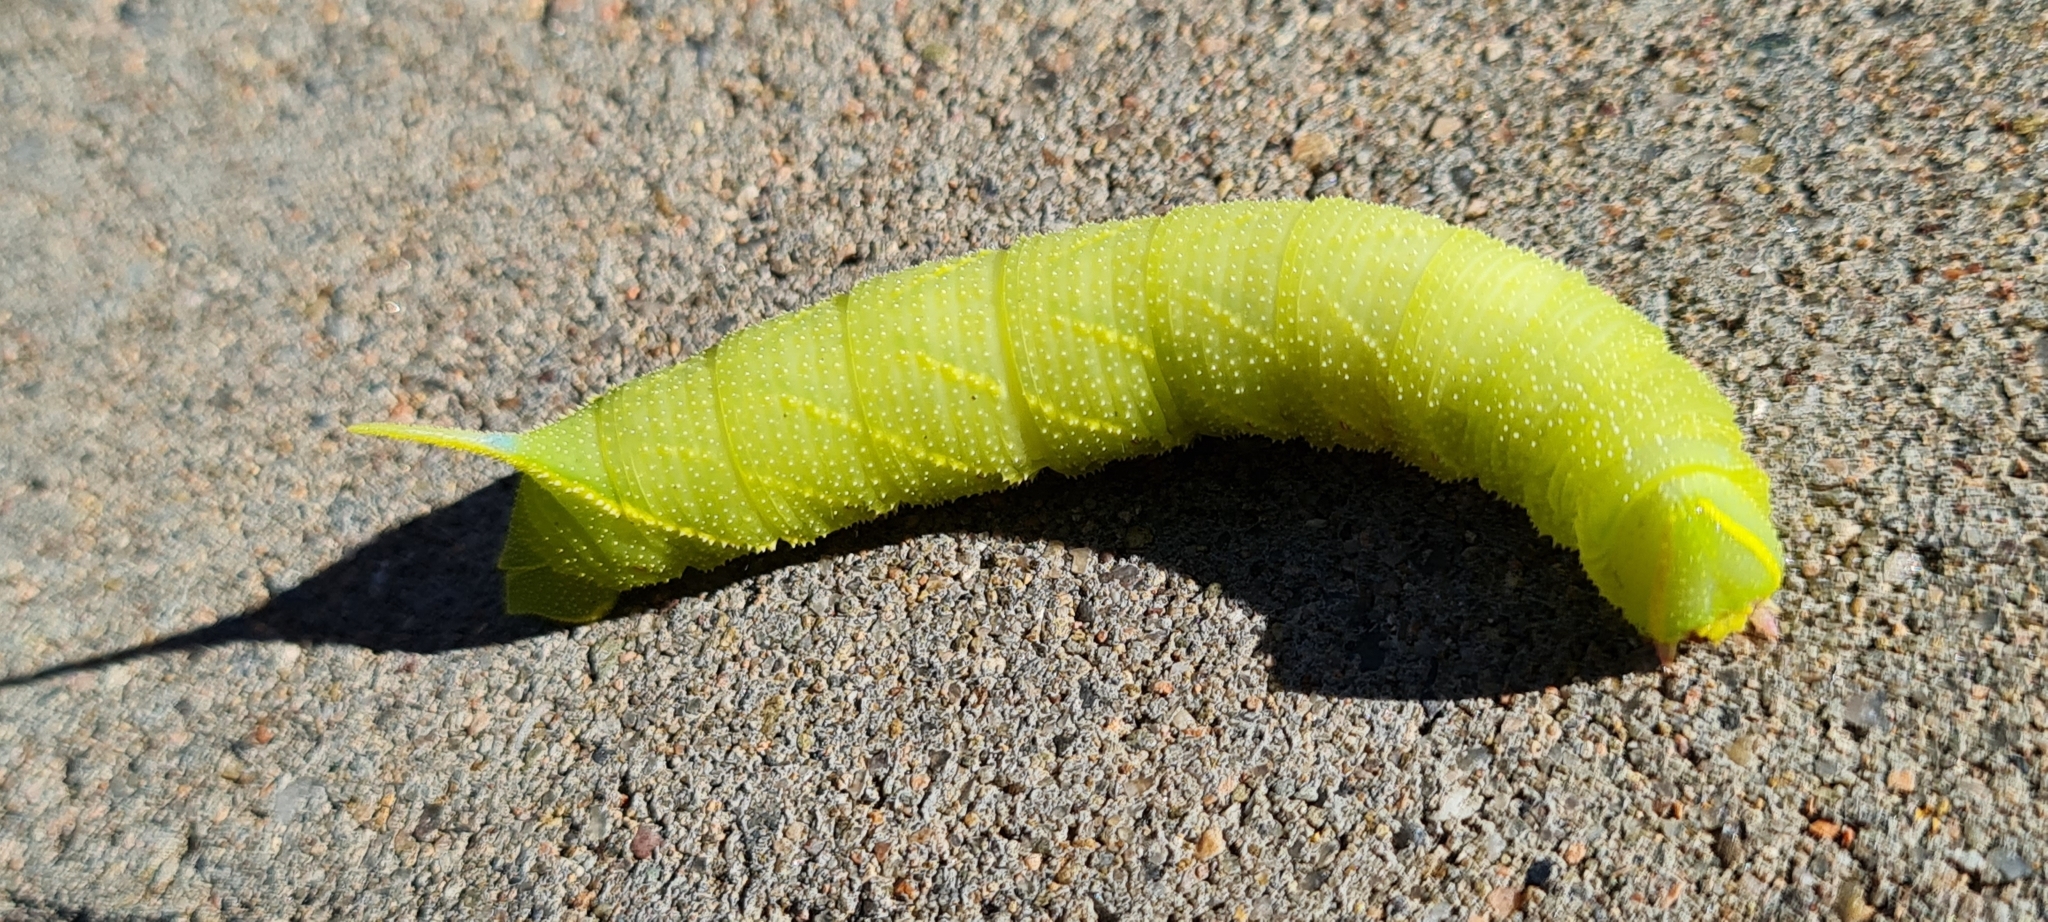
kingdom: Animalia
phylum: Arthropoda
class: Insecta
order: Lepidoptera
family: Sphingidae
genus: Laothoe
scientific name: Laothoe populi
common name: Poplar hawk-moth
